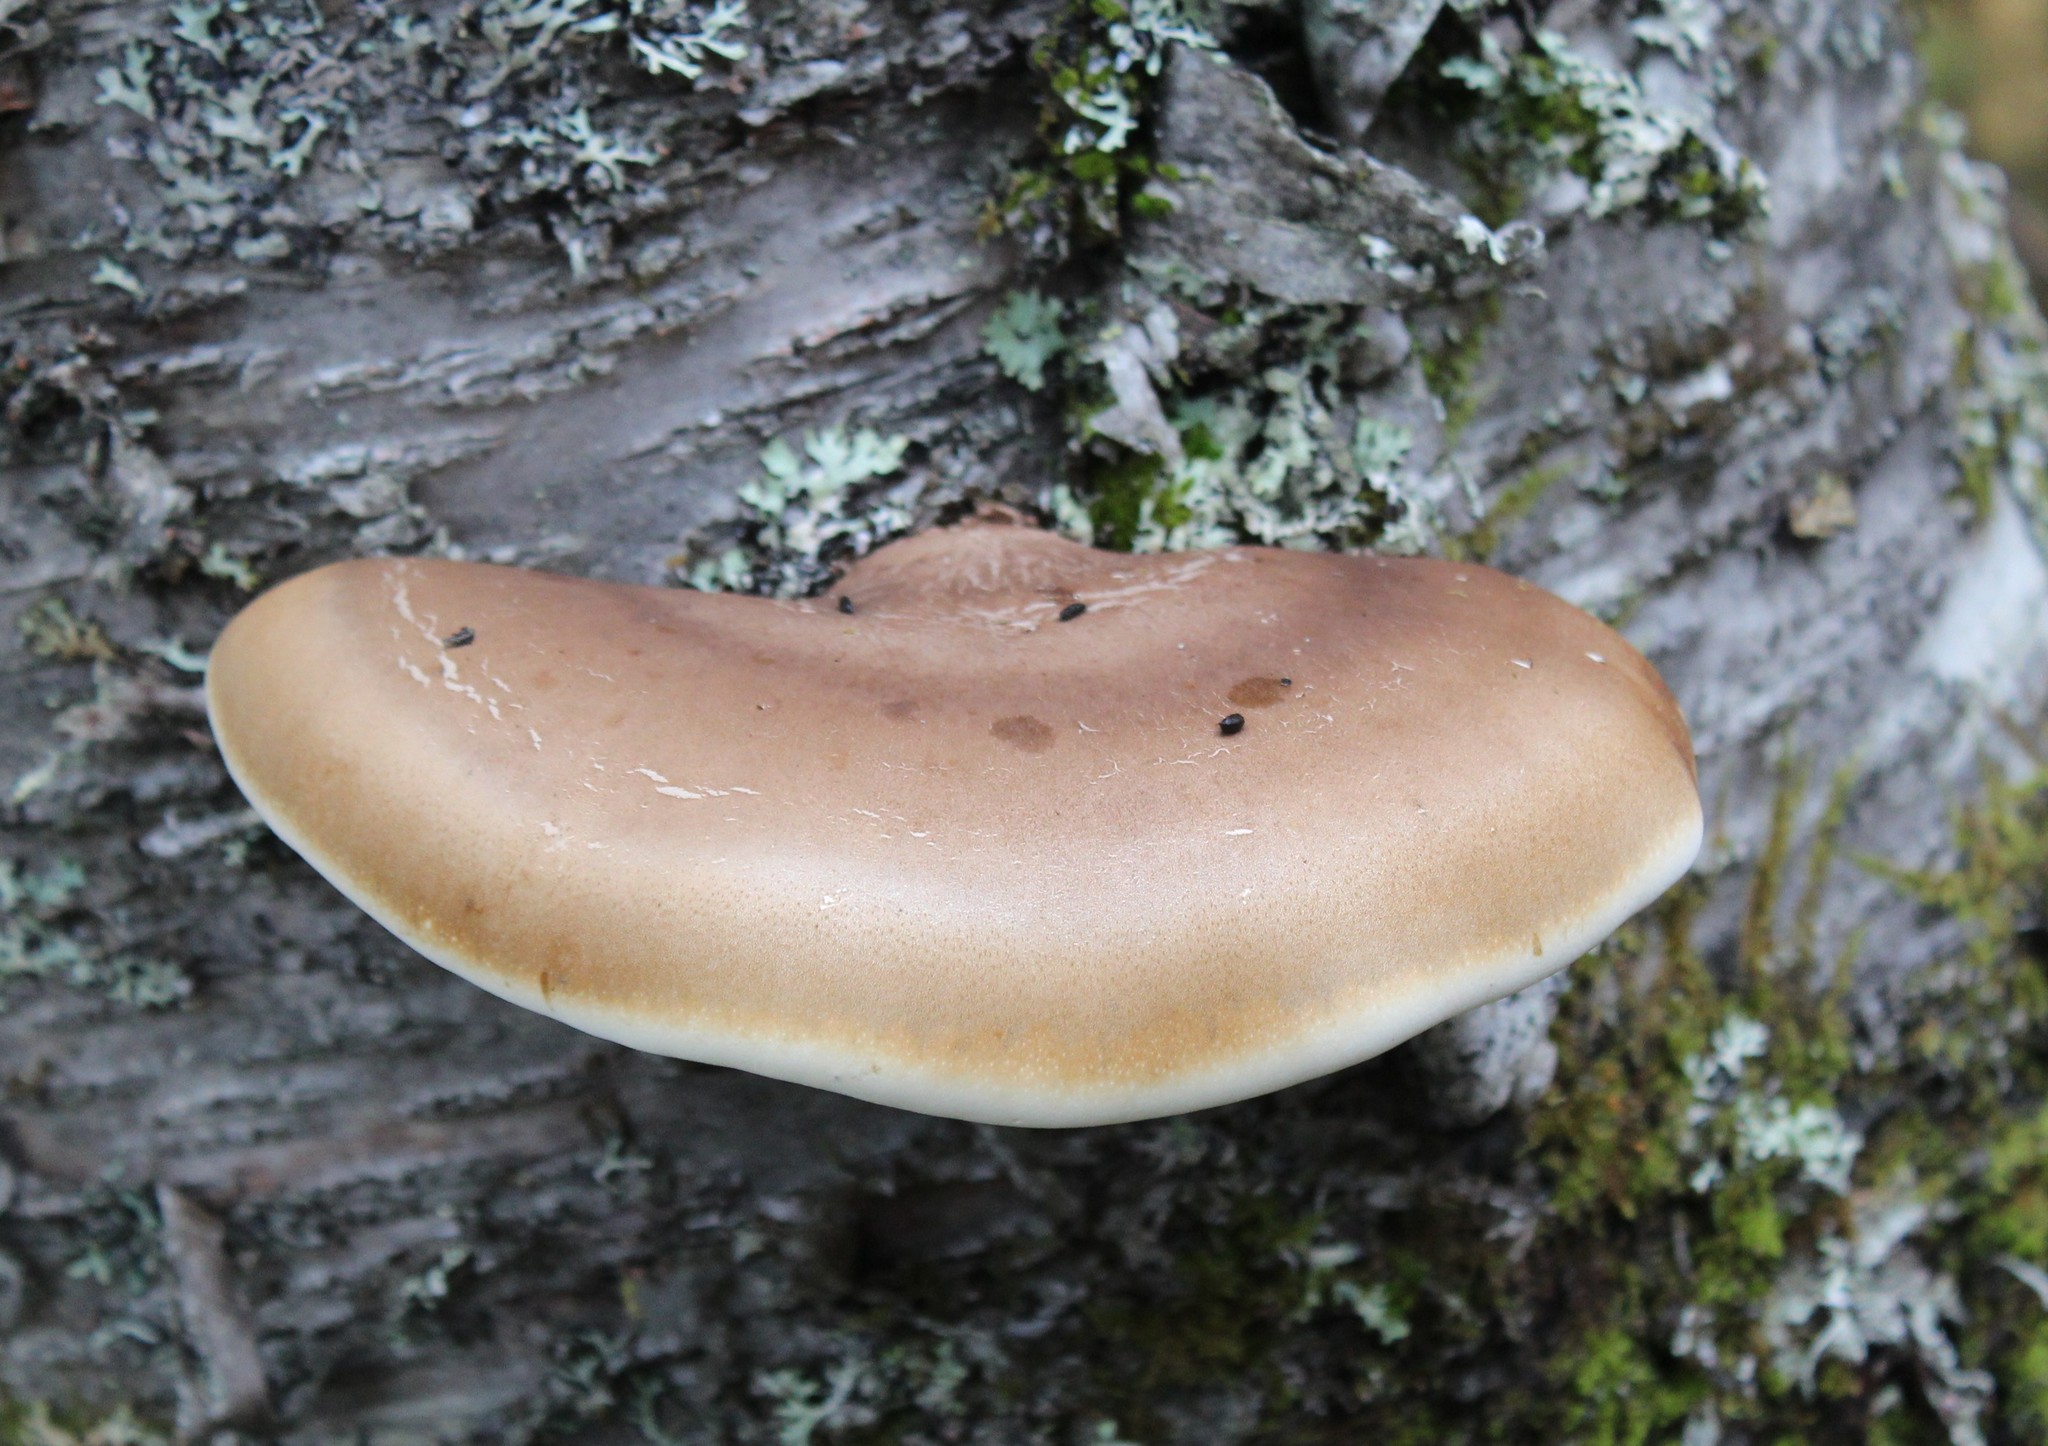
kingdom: Fungi
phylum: Basidiomycota
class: Agaricomycetes
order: Polyporales
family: Fomitopsidaceae
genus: Fomitopsis
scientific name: Fomitopsis betulina
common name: Birch polypore
